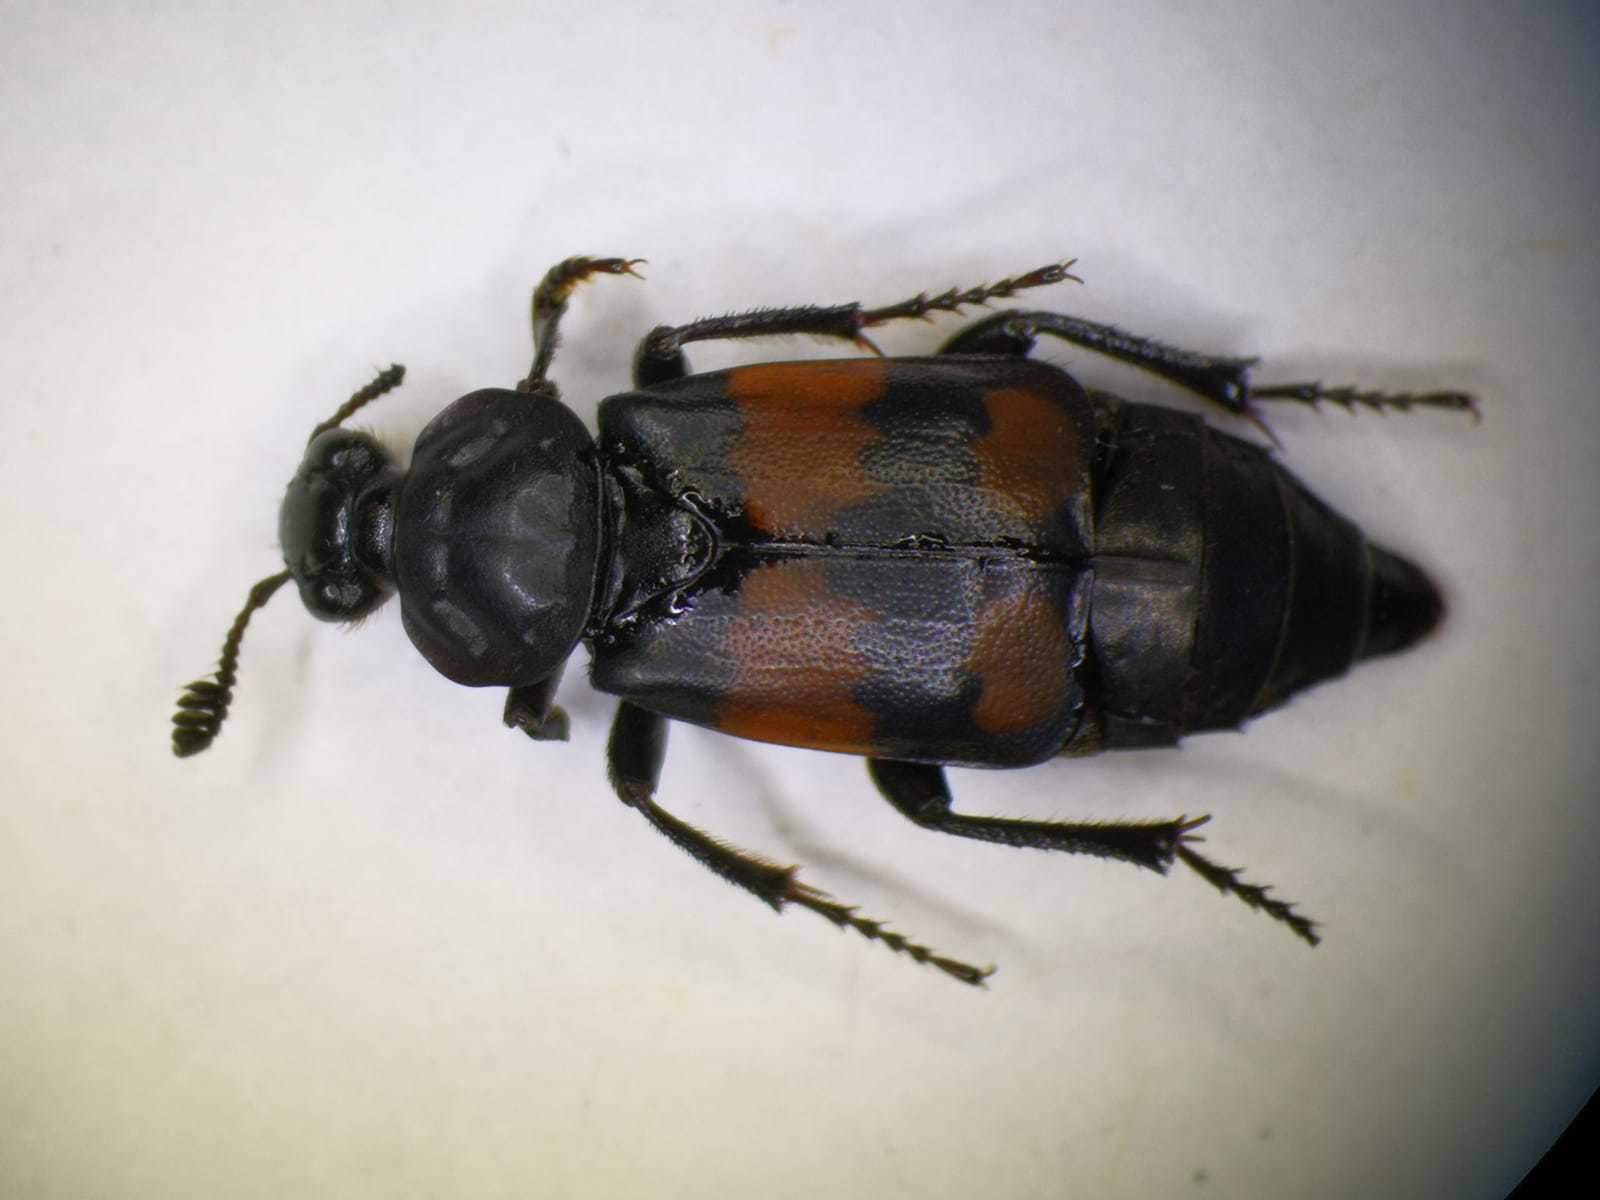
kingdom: Animalia
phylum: Arthropoda
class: Insecta
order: Coleoptera
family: Staphylinidae
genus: Nicrophorus
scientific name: Nicrophorus vespilloides
